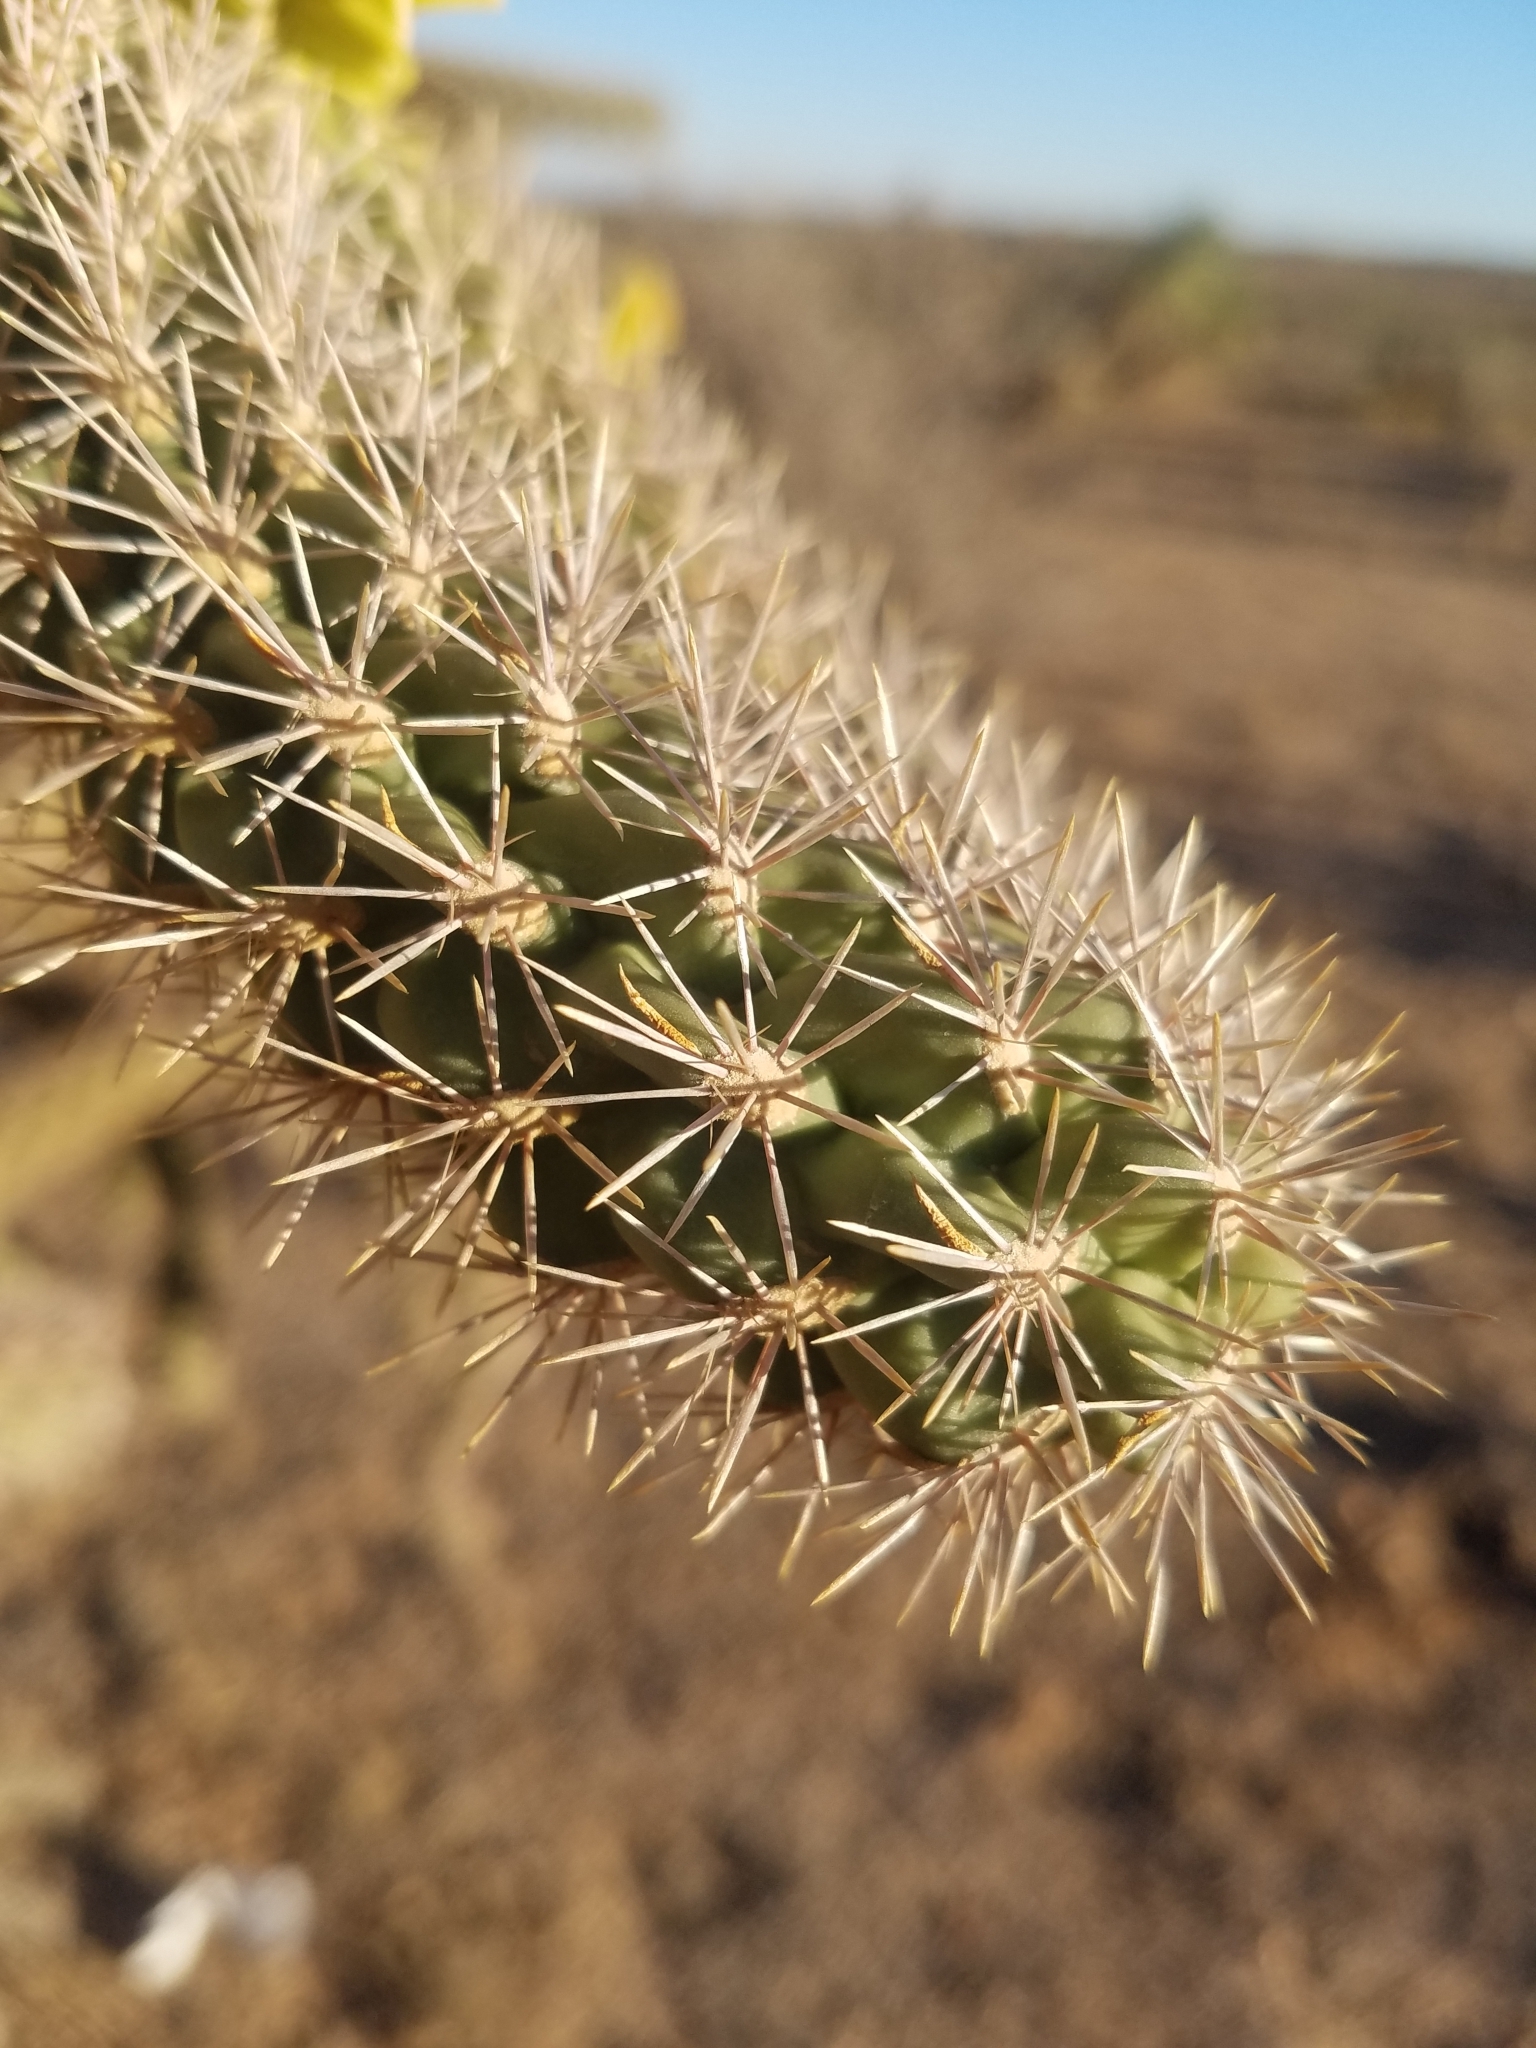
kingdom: Plantae
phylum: Tracheophyta
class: Magnoliopsida
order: Caryophyllales
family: Cactaceae
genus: Cylindropuntia
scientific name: Cylindropuntia imbricata
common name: Candelabrum cactus
